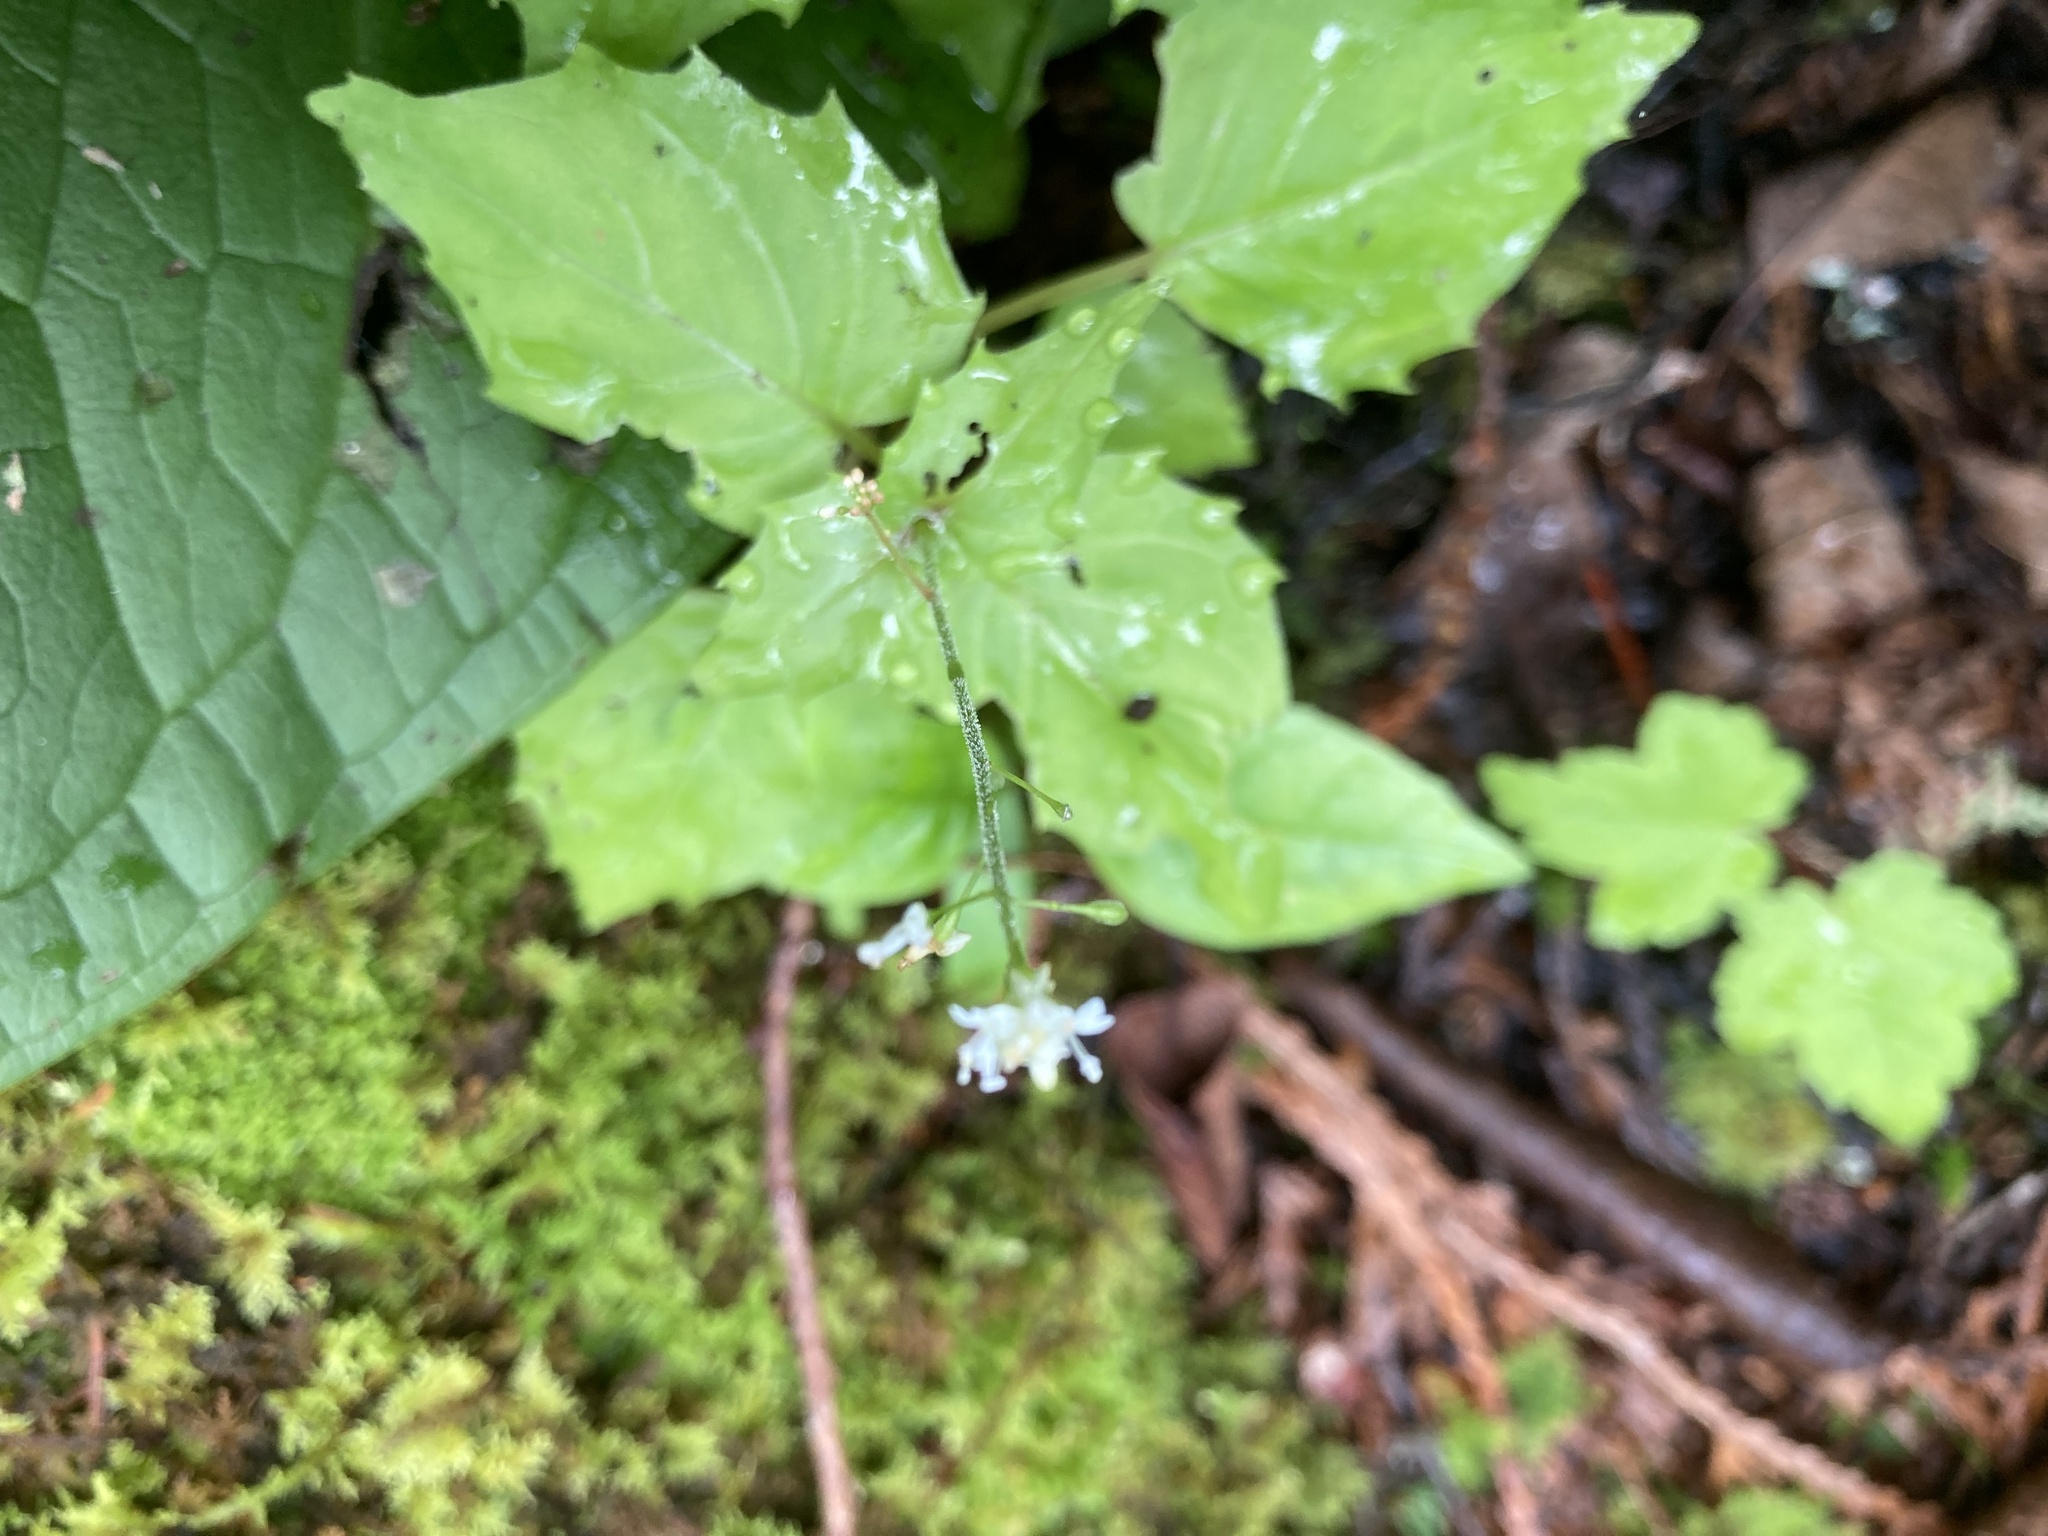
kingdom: Plantae
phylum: Tracheophyta
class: Magnoliopsida
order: Myrtales
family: Onagraceae
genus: Circaea
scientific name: Circaea alpina
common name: Alpine enchanter's-nightshade
